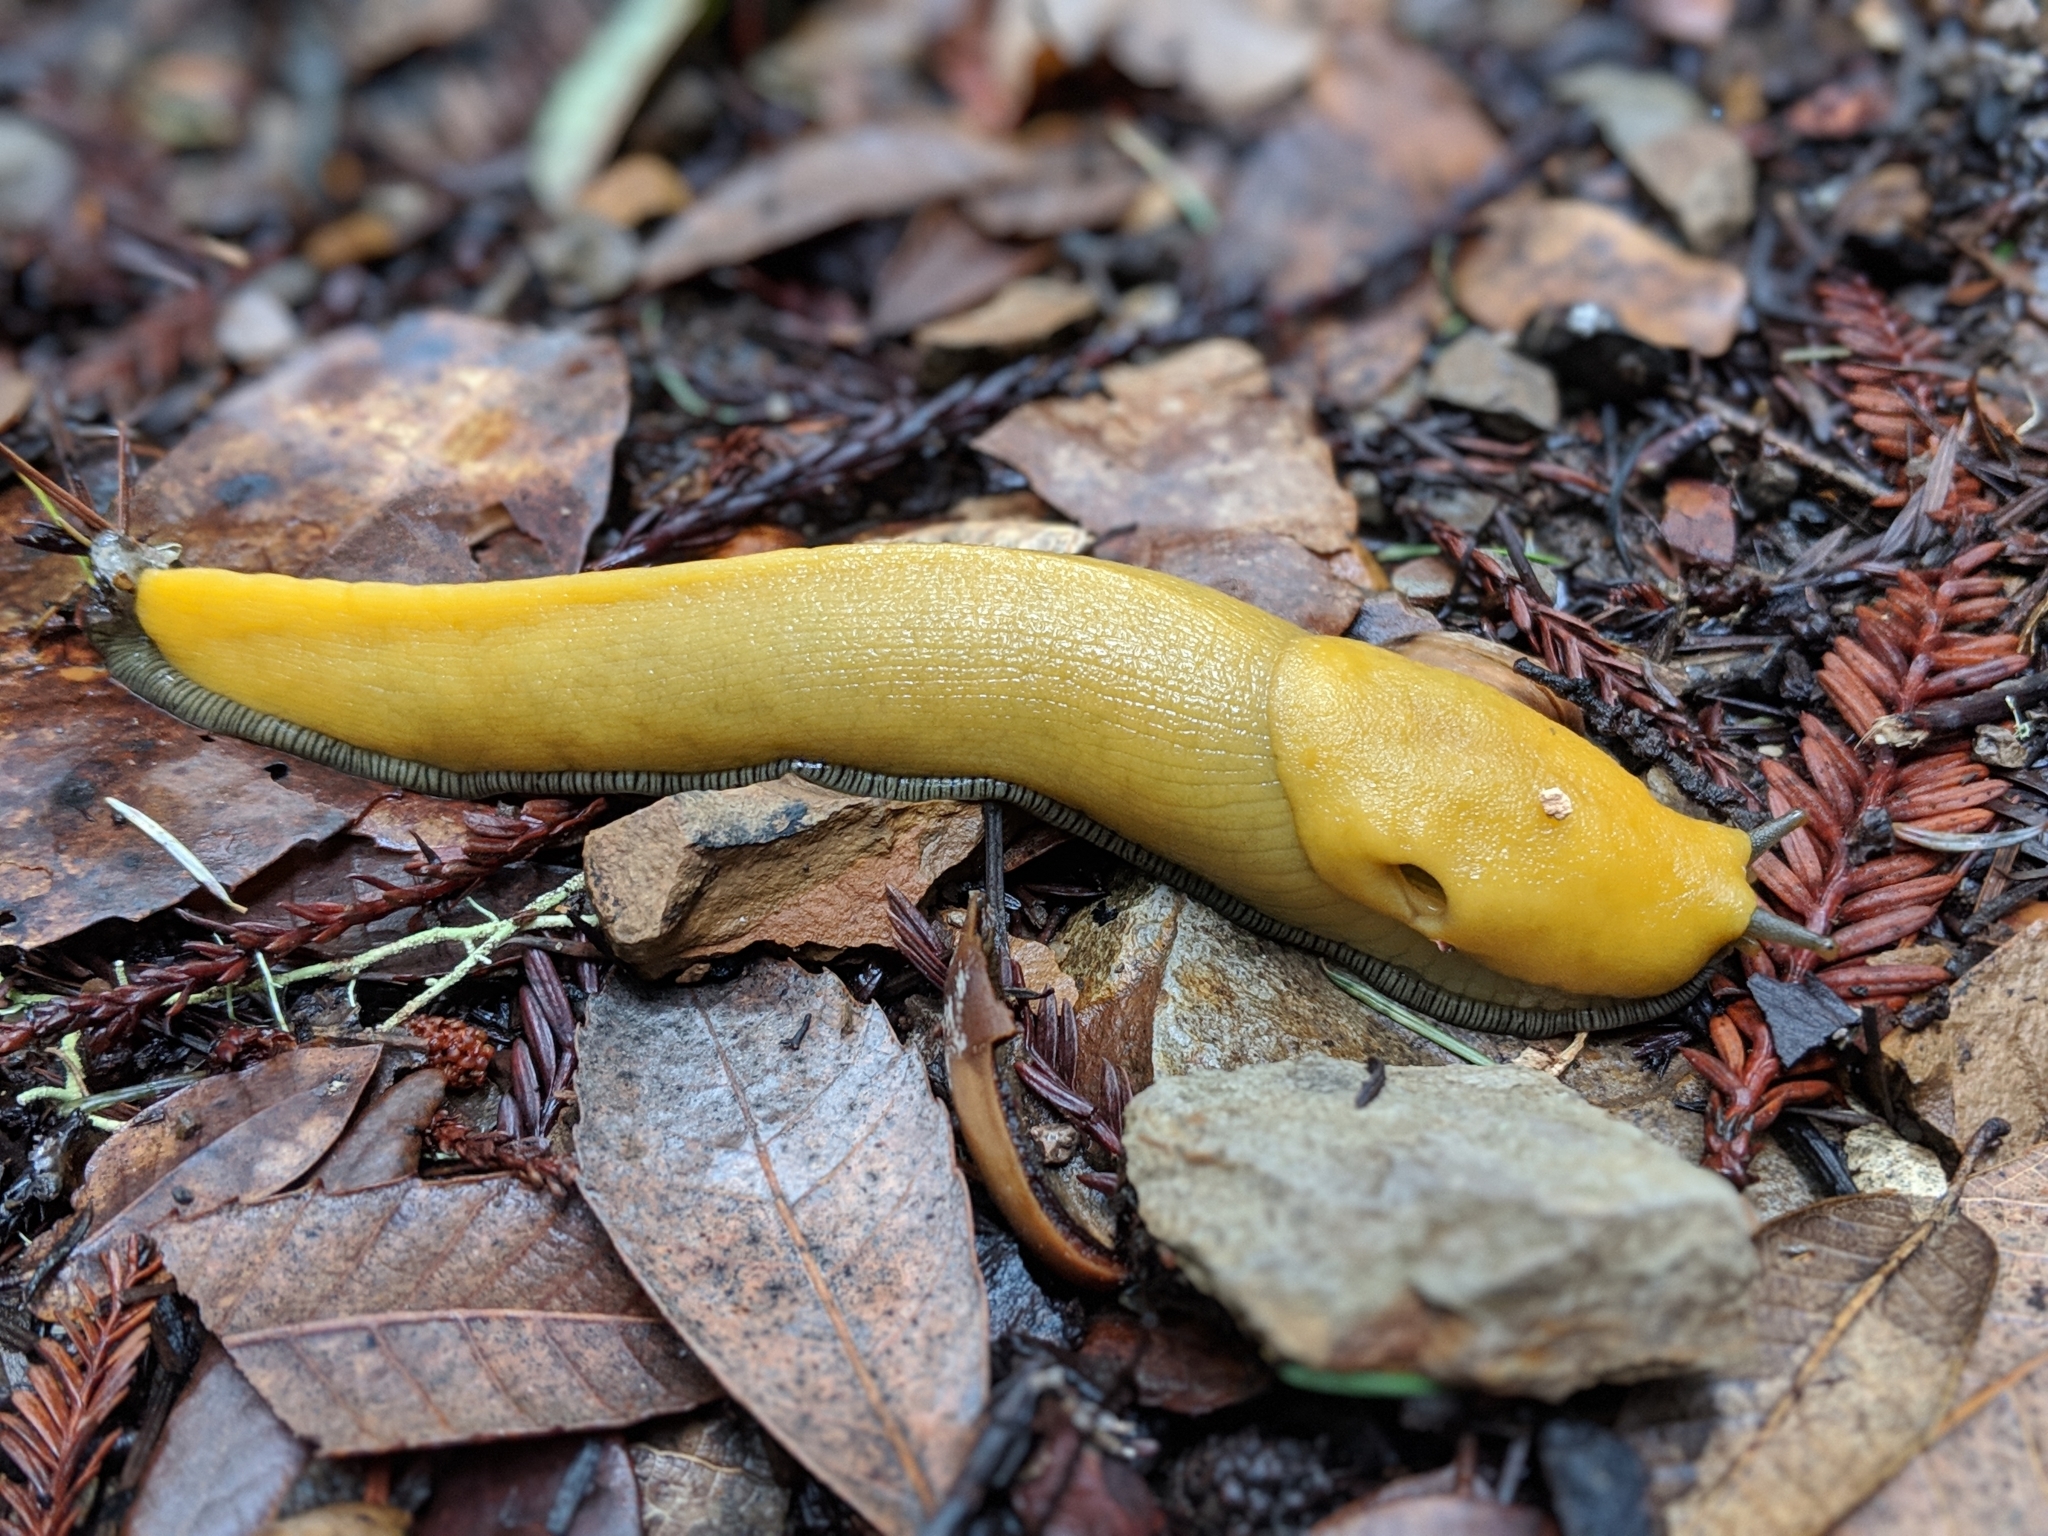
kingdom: Animalia
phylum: Mollusca
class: Gastropoda
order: Stylommatophora
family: Ariolimacidae
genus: Ariolimax
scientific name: Ariolimax californicus
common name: California banana slug
